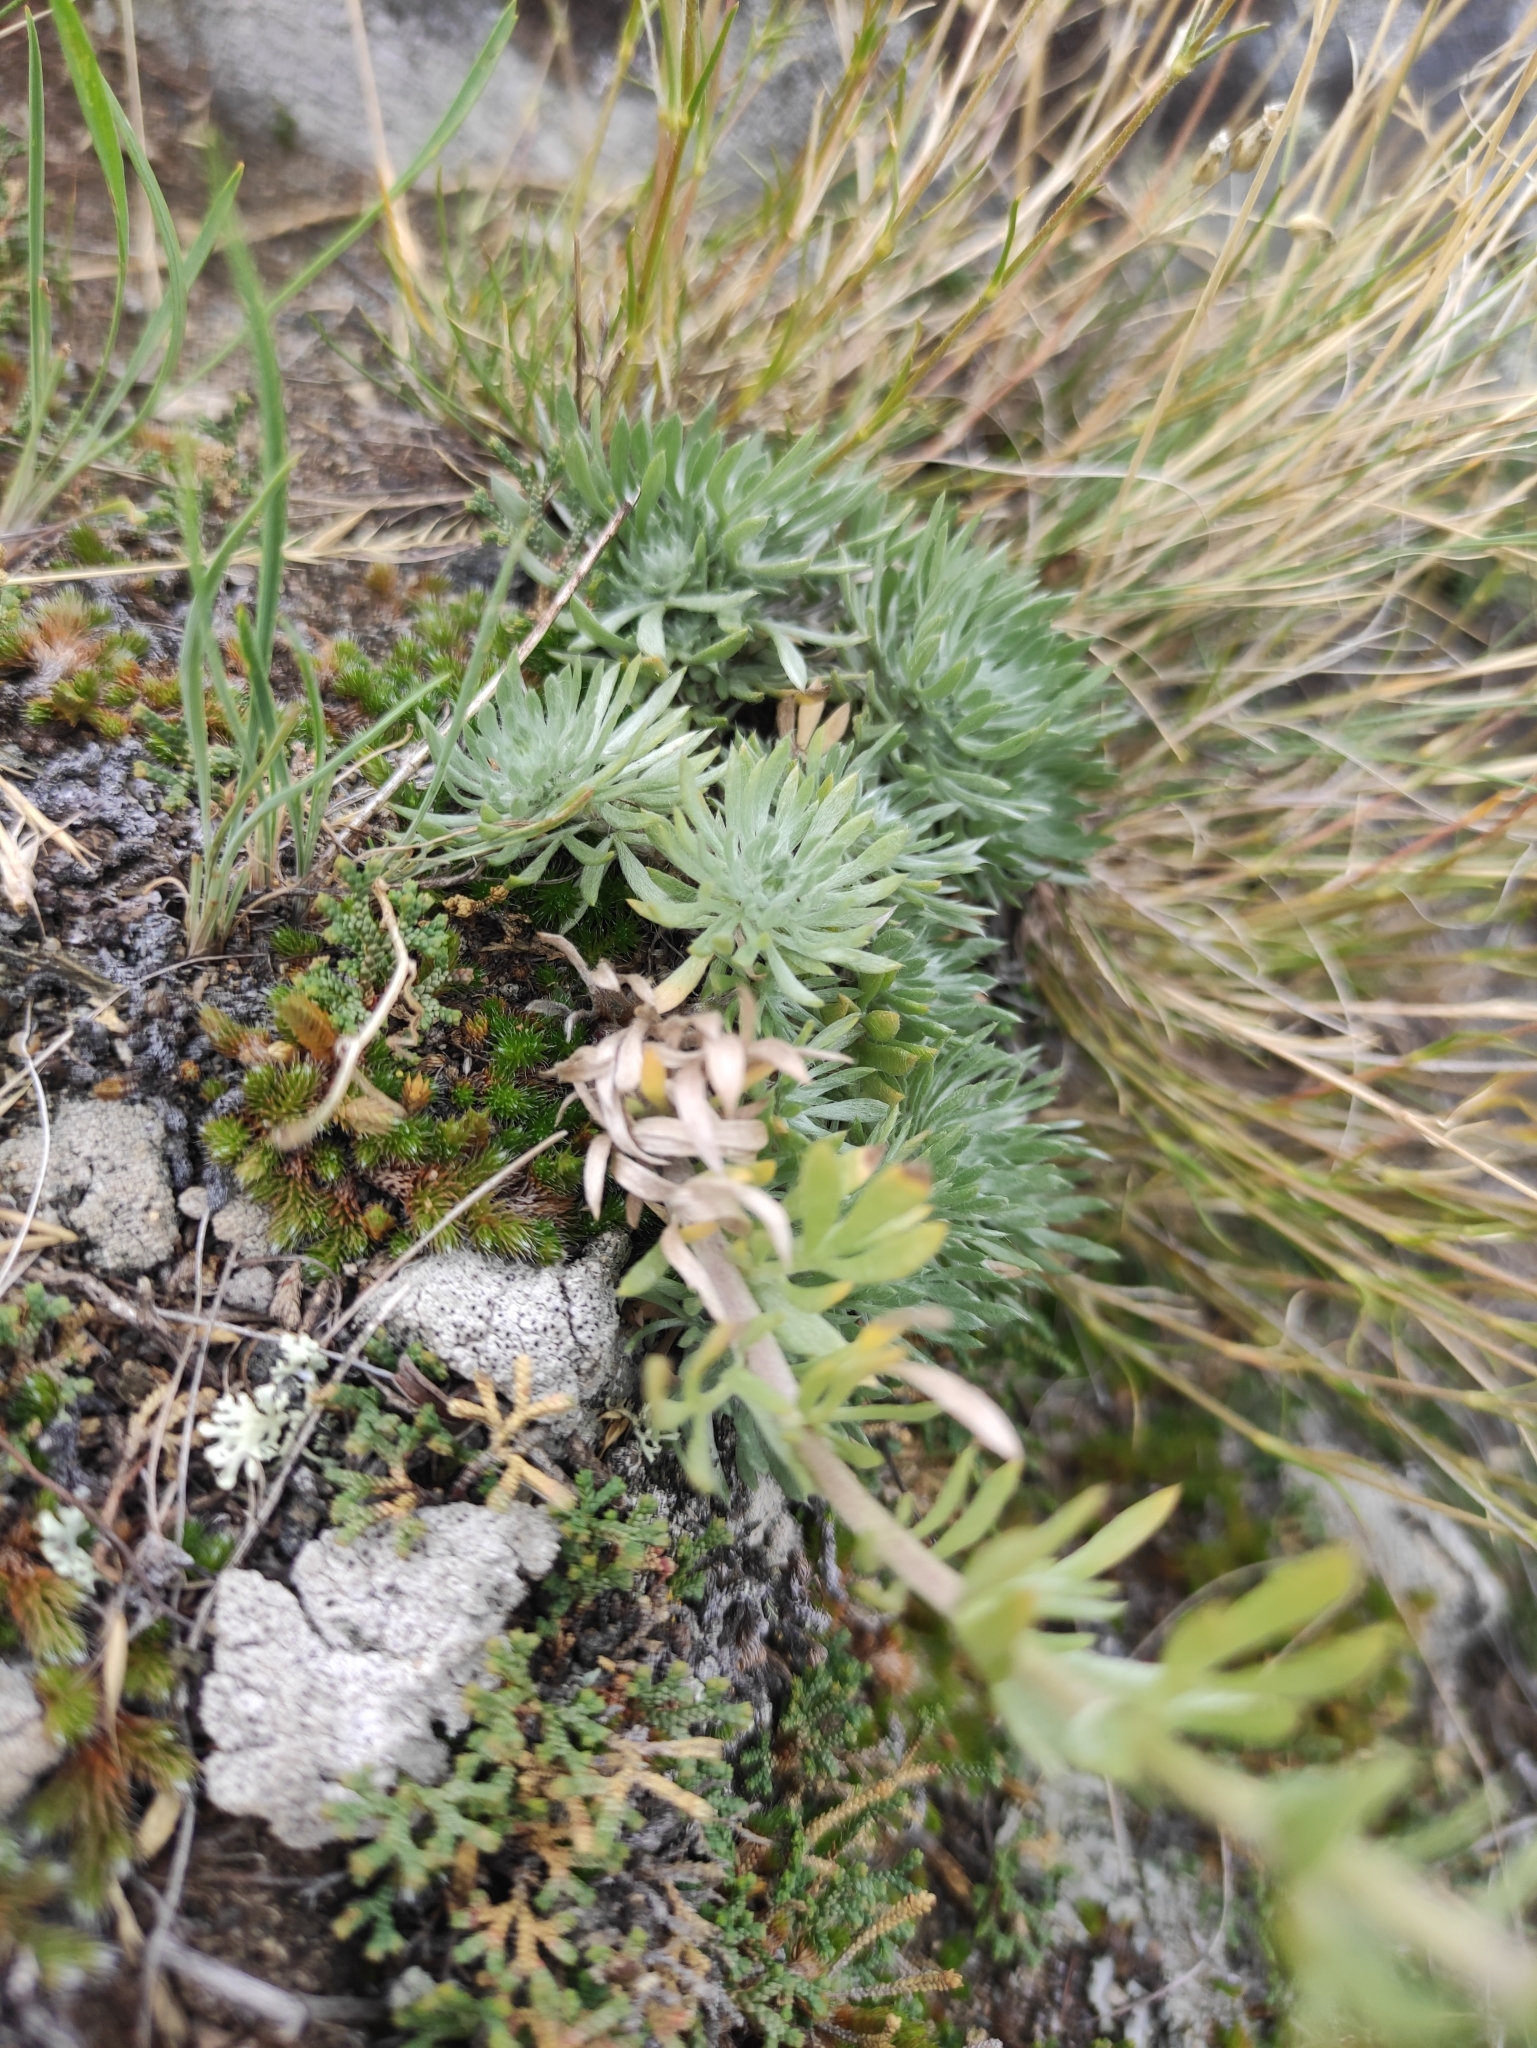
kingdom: Plantae
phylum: Tracheophyta
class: Magnoliopsida
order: Asterales
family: Asteraceae
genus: Artemisia
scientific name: Artemisia cuspidata
